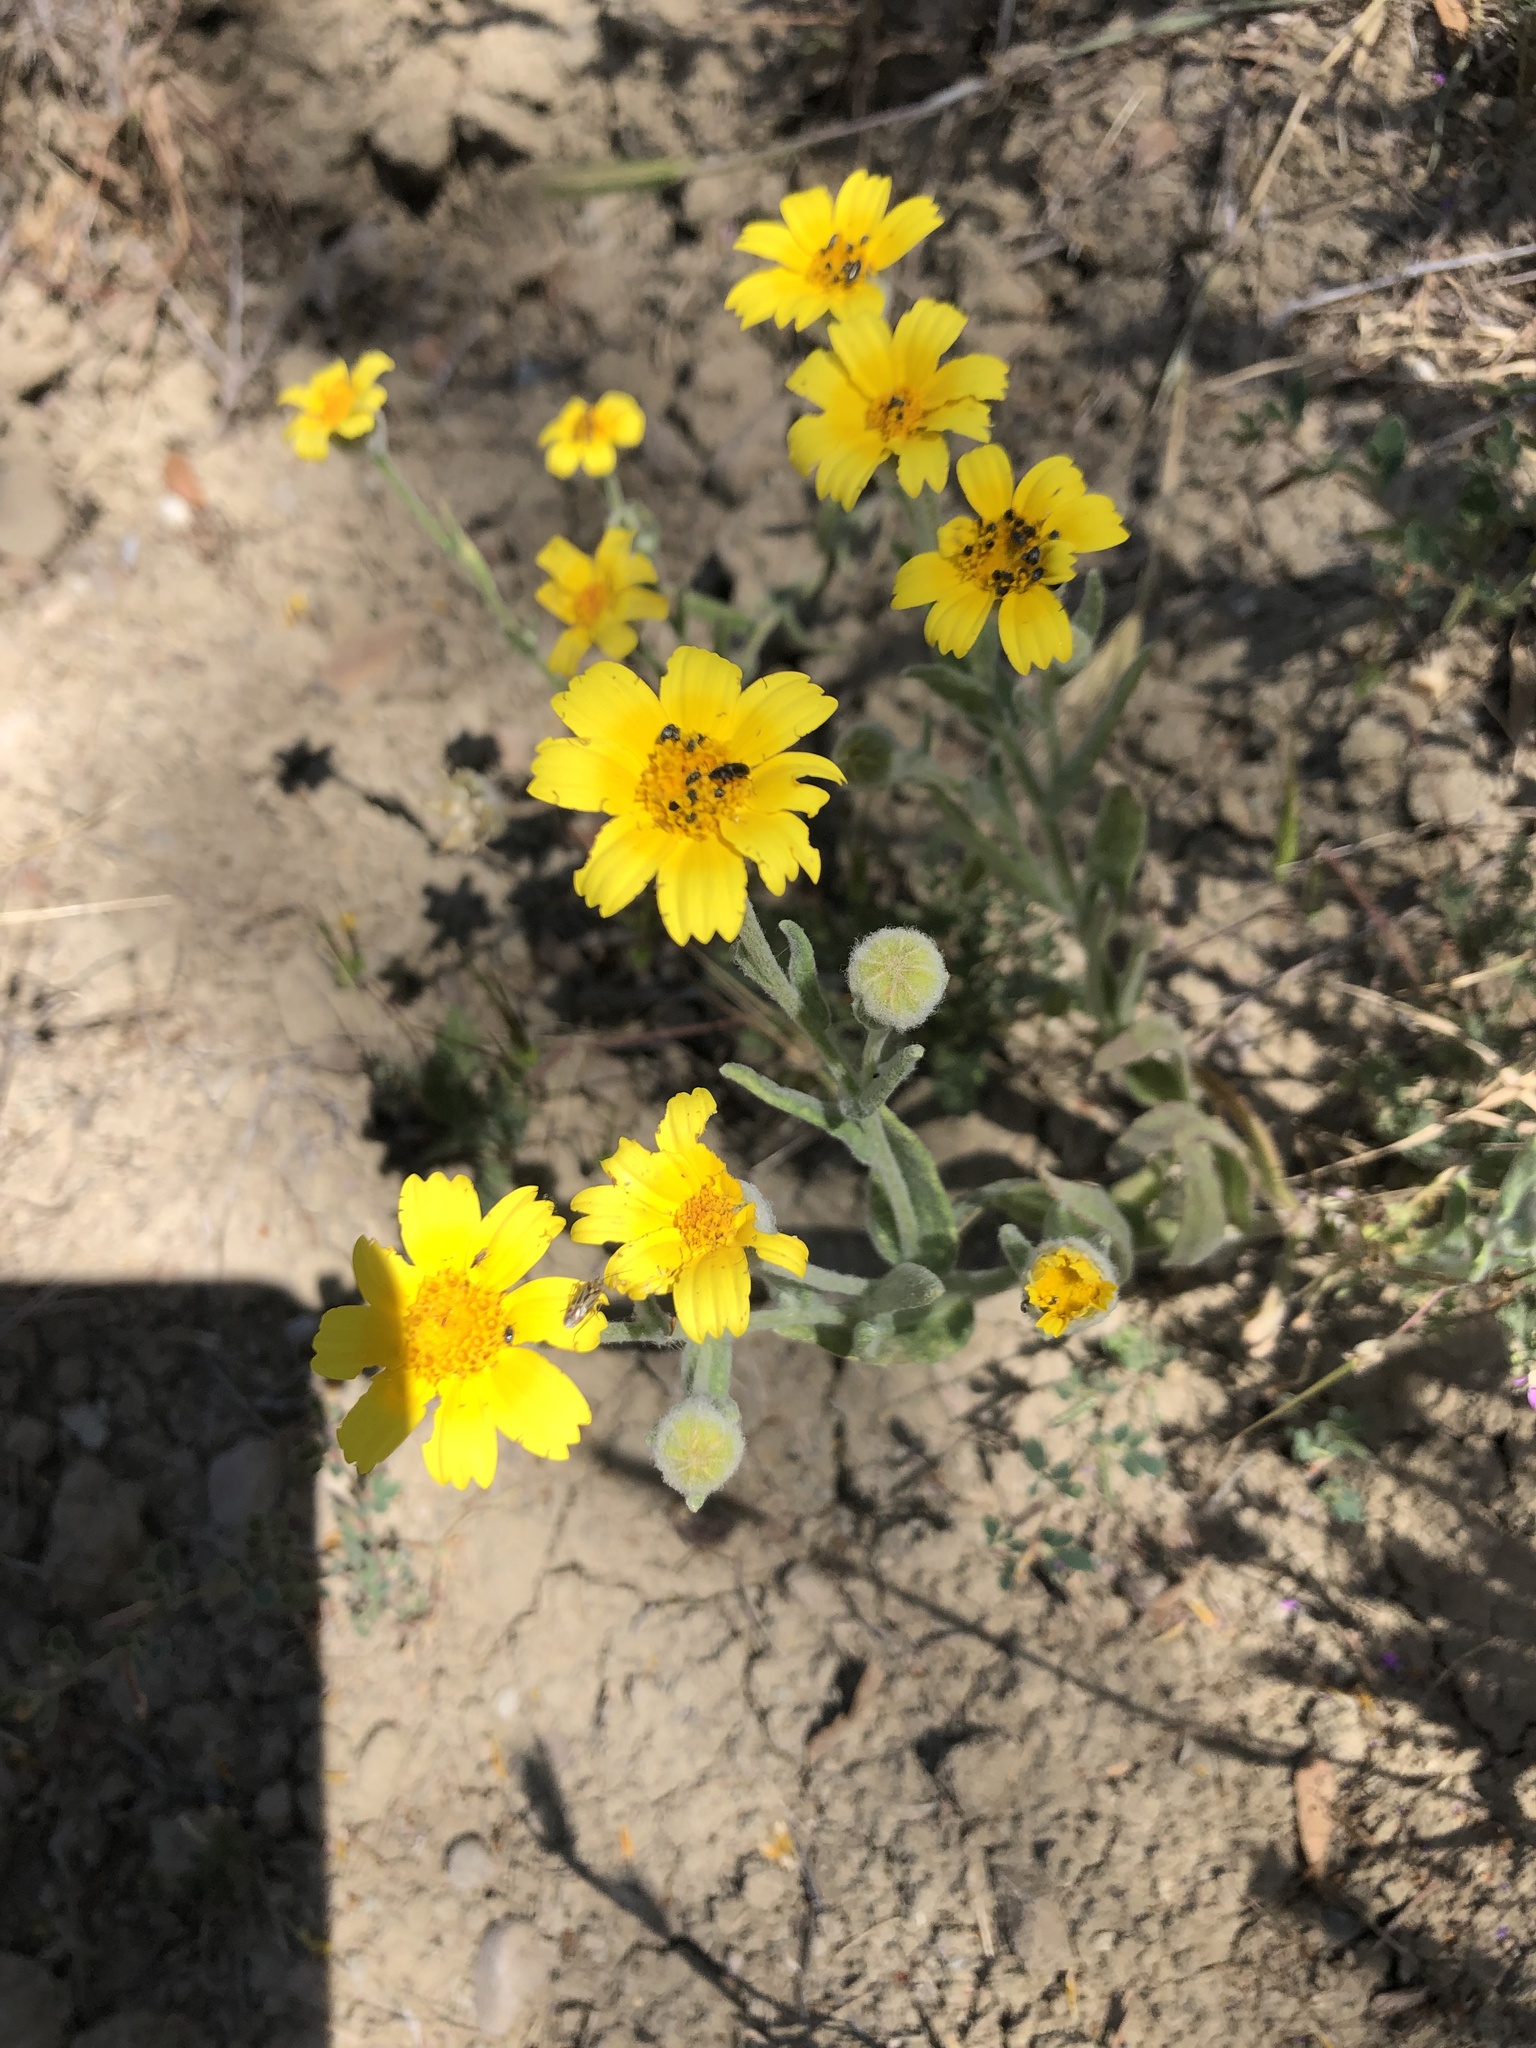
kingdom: Plantae
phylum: Tracheophyta
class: Magnoliopsida
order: Asterales
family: Asteraceae
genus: Monolopia
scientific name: Monolopia lanceolata
